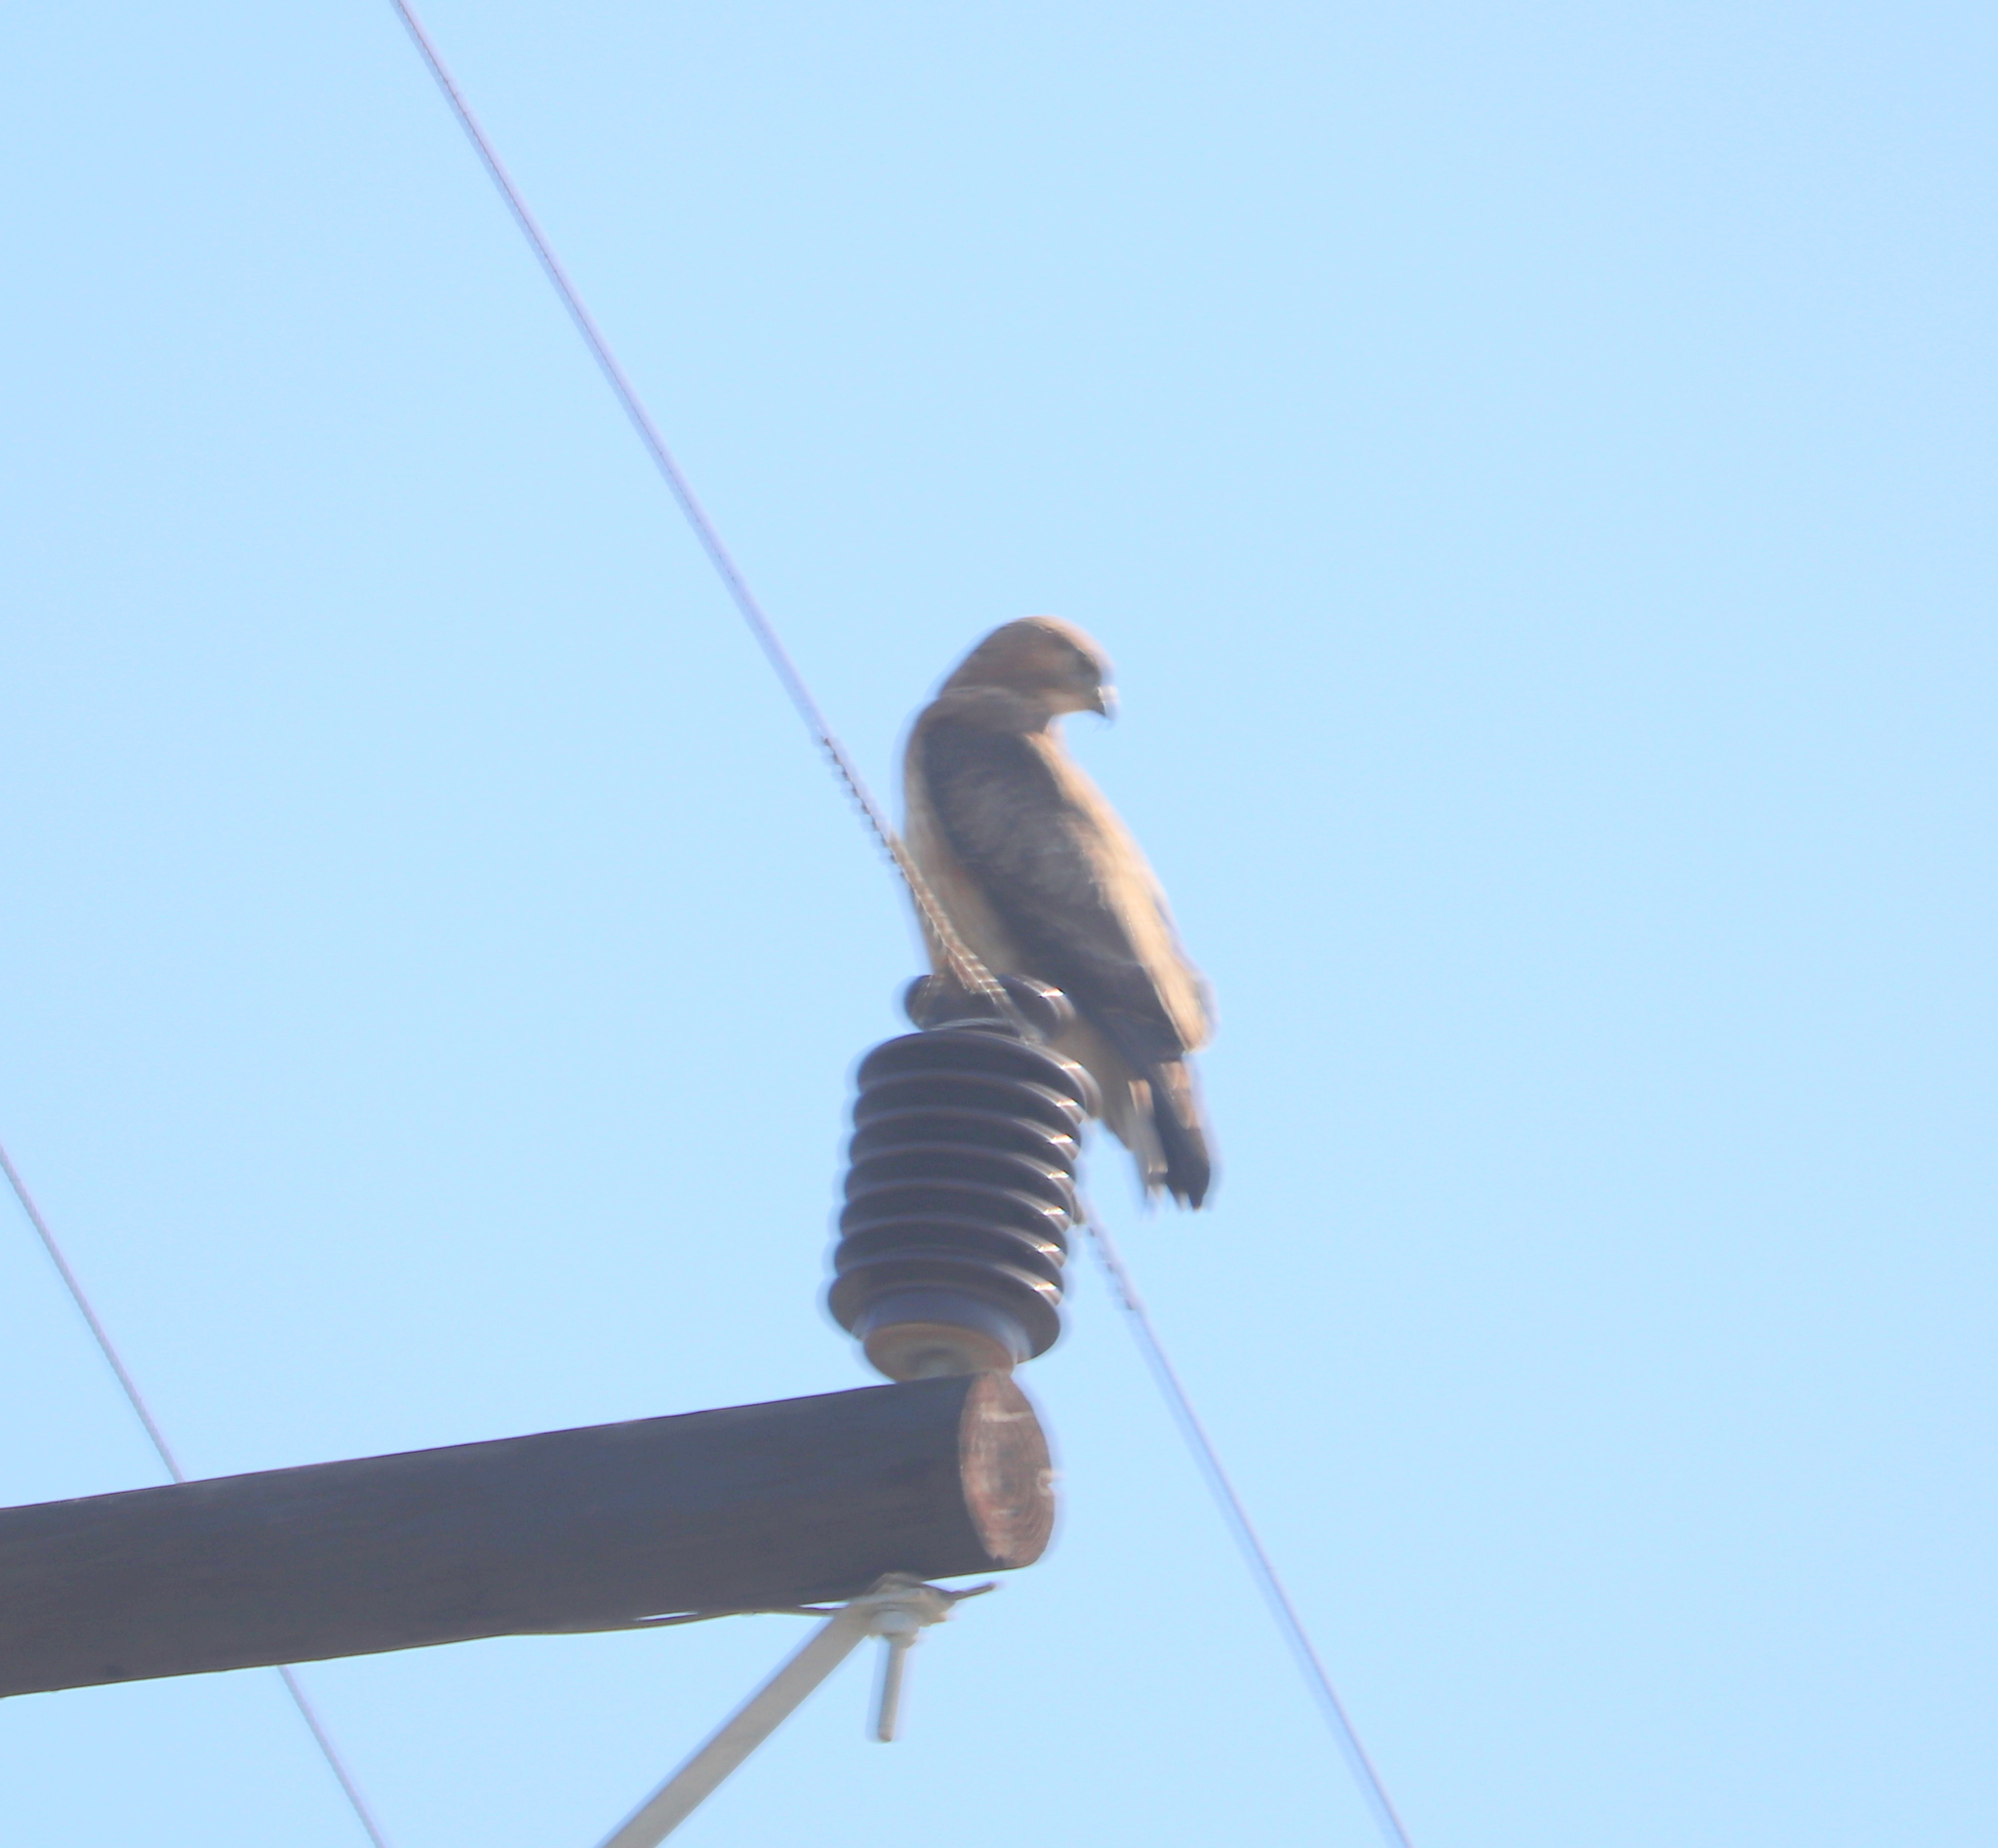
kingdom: Animalia
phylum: Chordata
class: Aves
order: Accipitriformes
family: Accipitridae
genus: Buteo
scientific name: Buteo rufofuscus
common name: Jackal buzzard
